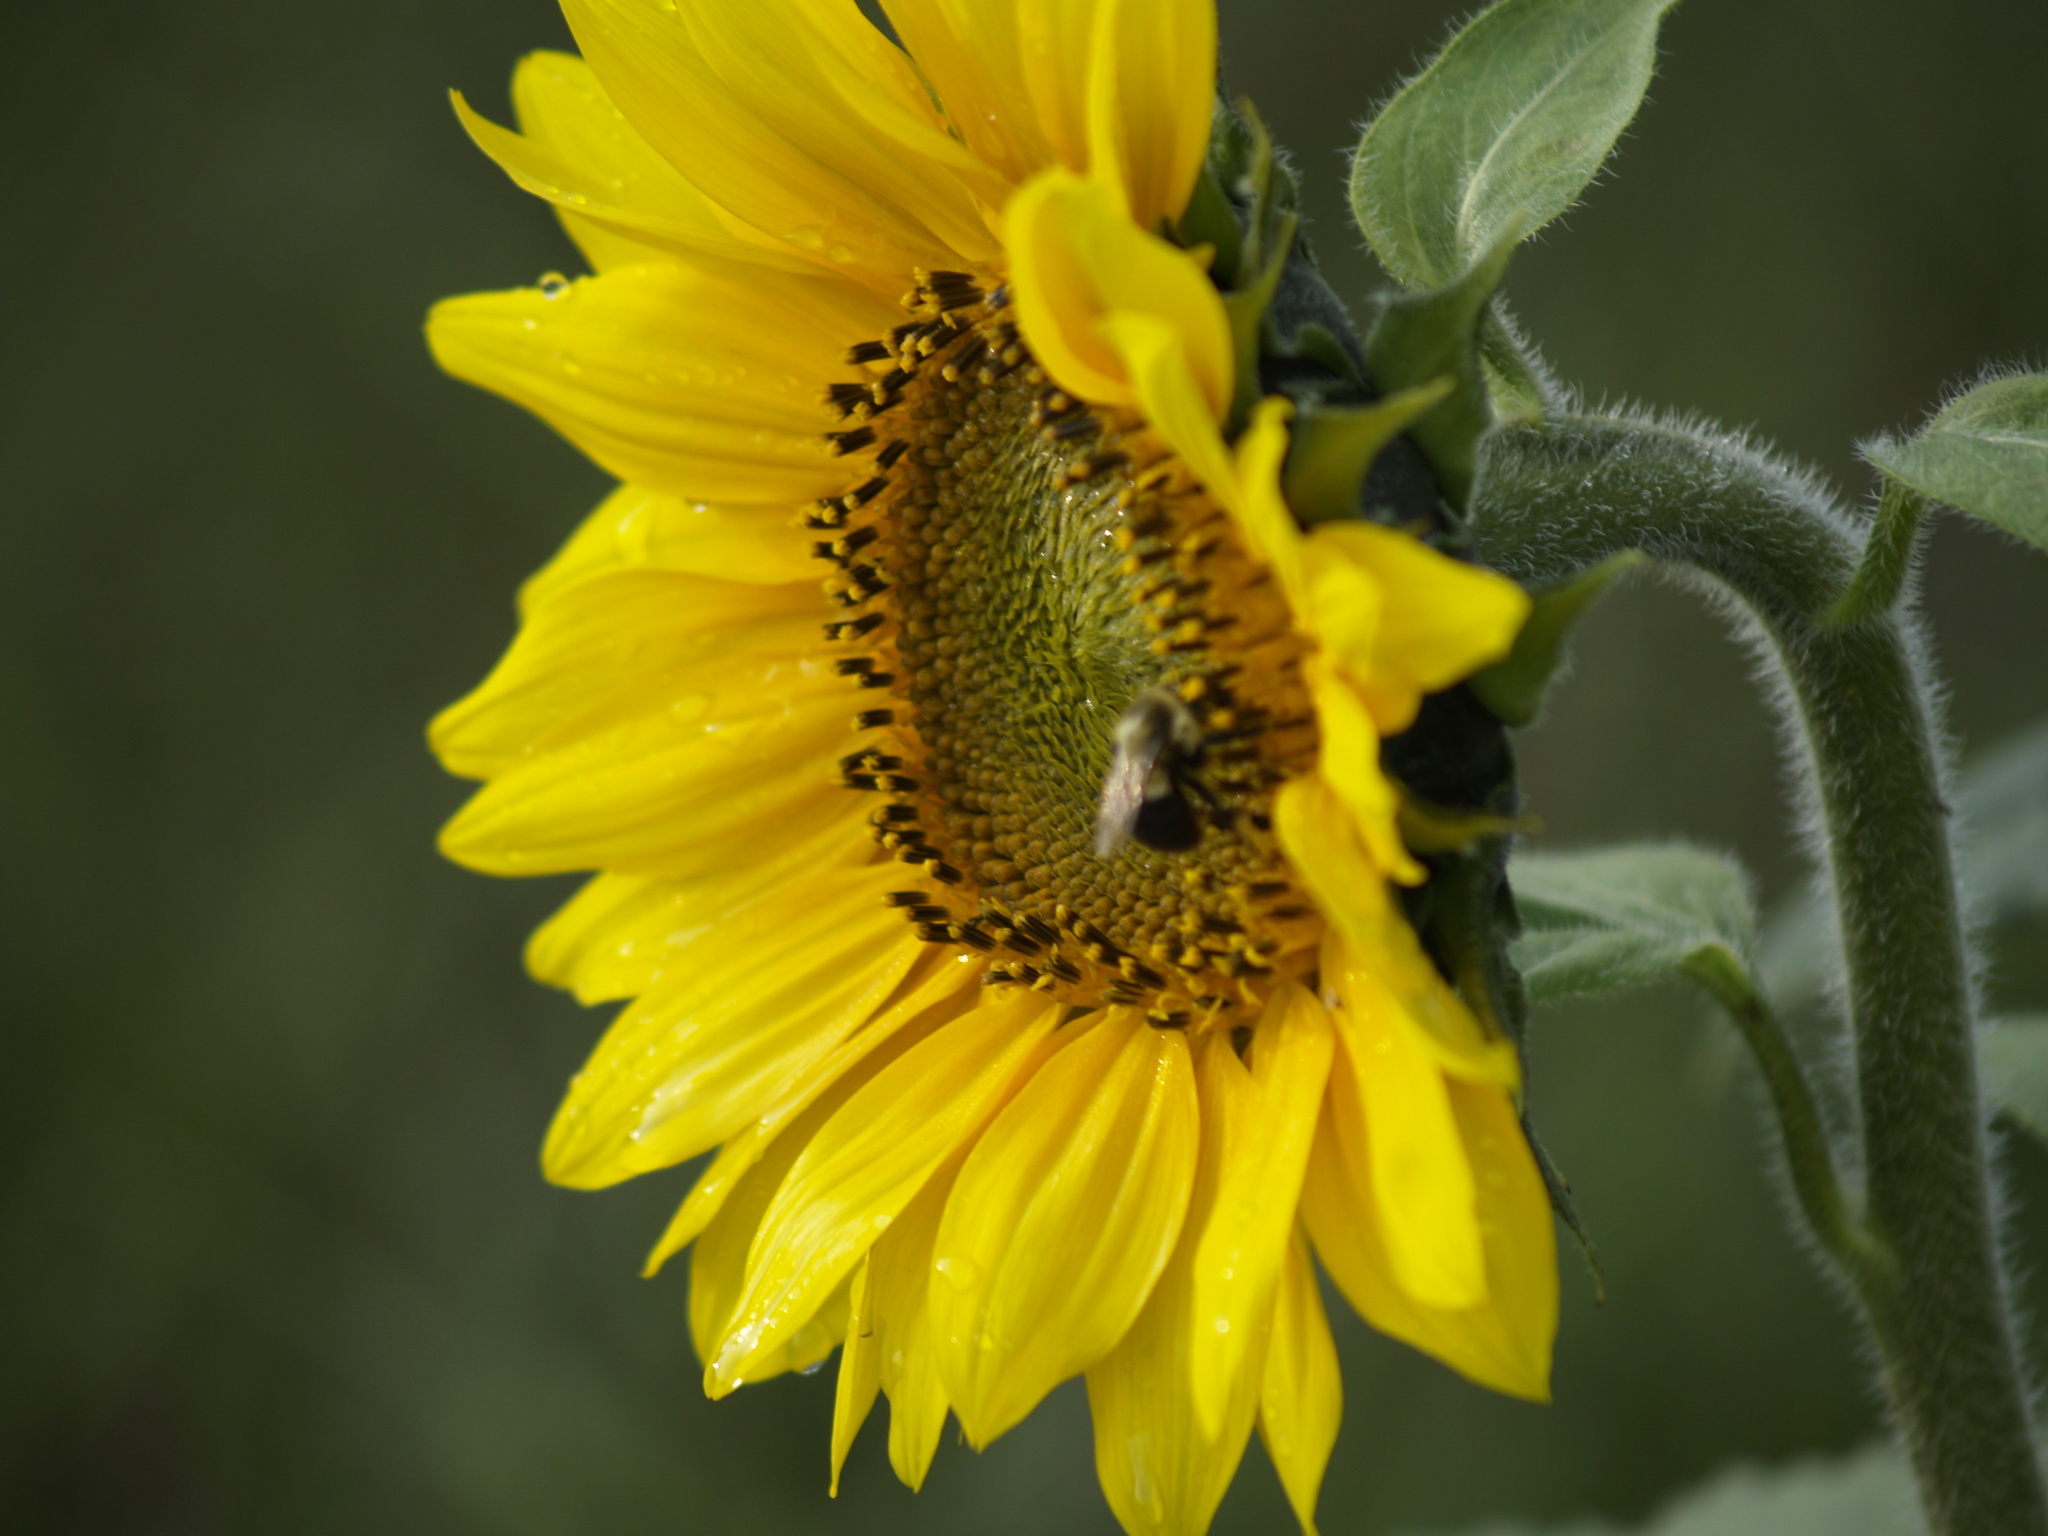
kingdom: Animalia
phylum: Arthropoda
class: Insecta
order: Hymenoptera
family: Apidae
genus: Bombus
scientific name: Bombus impatiens
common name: Common eastern bumble bee
